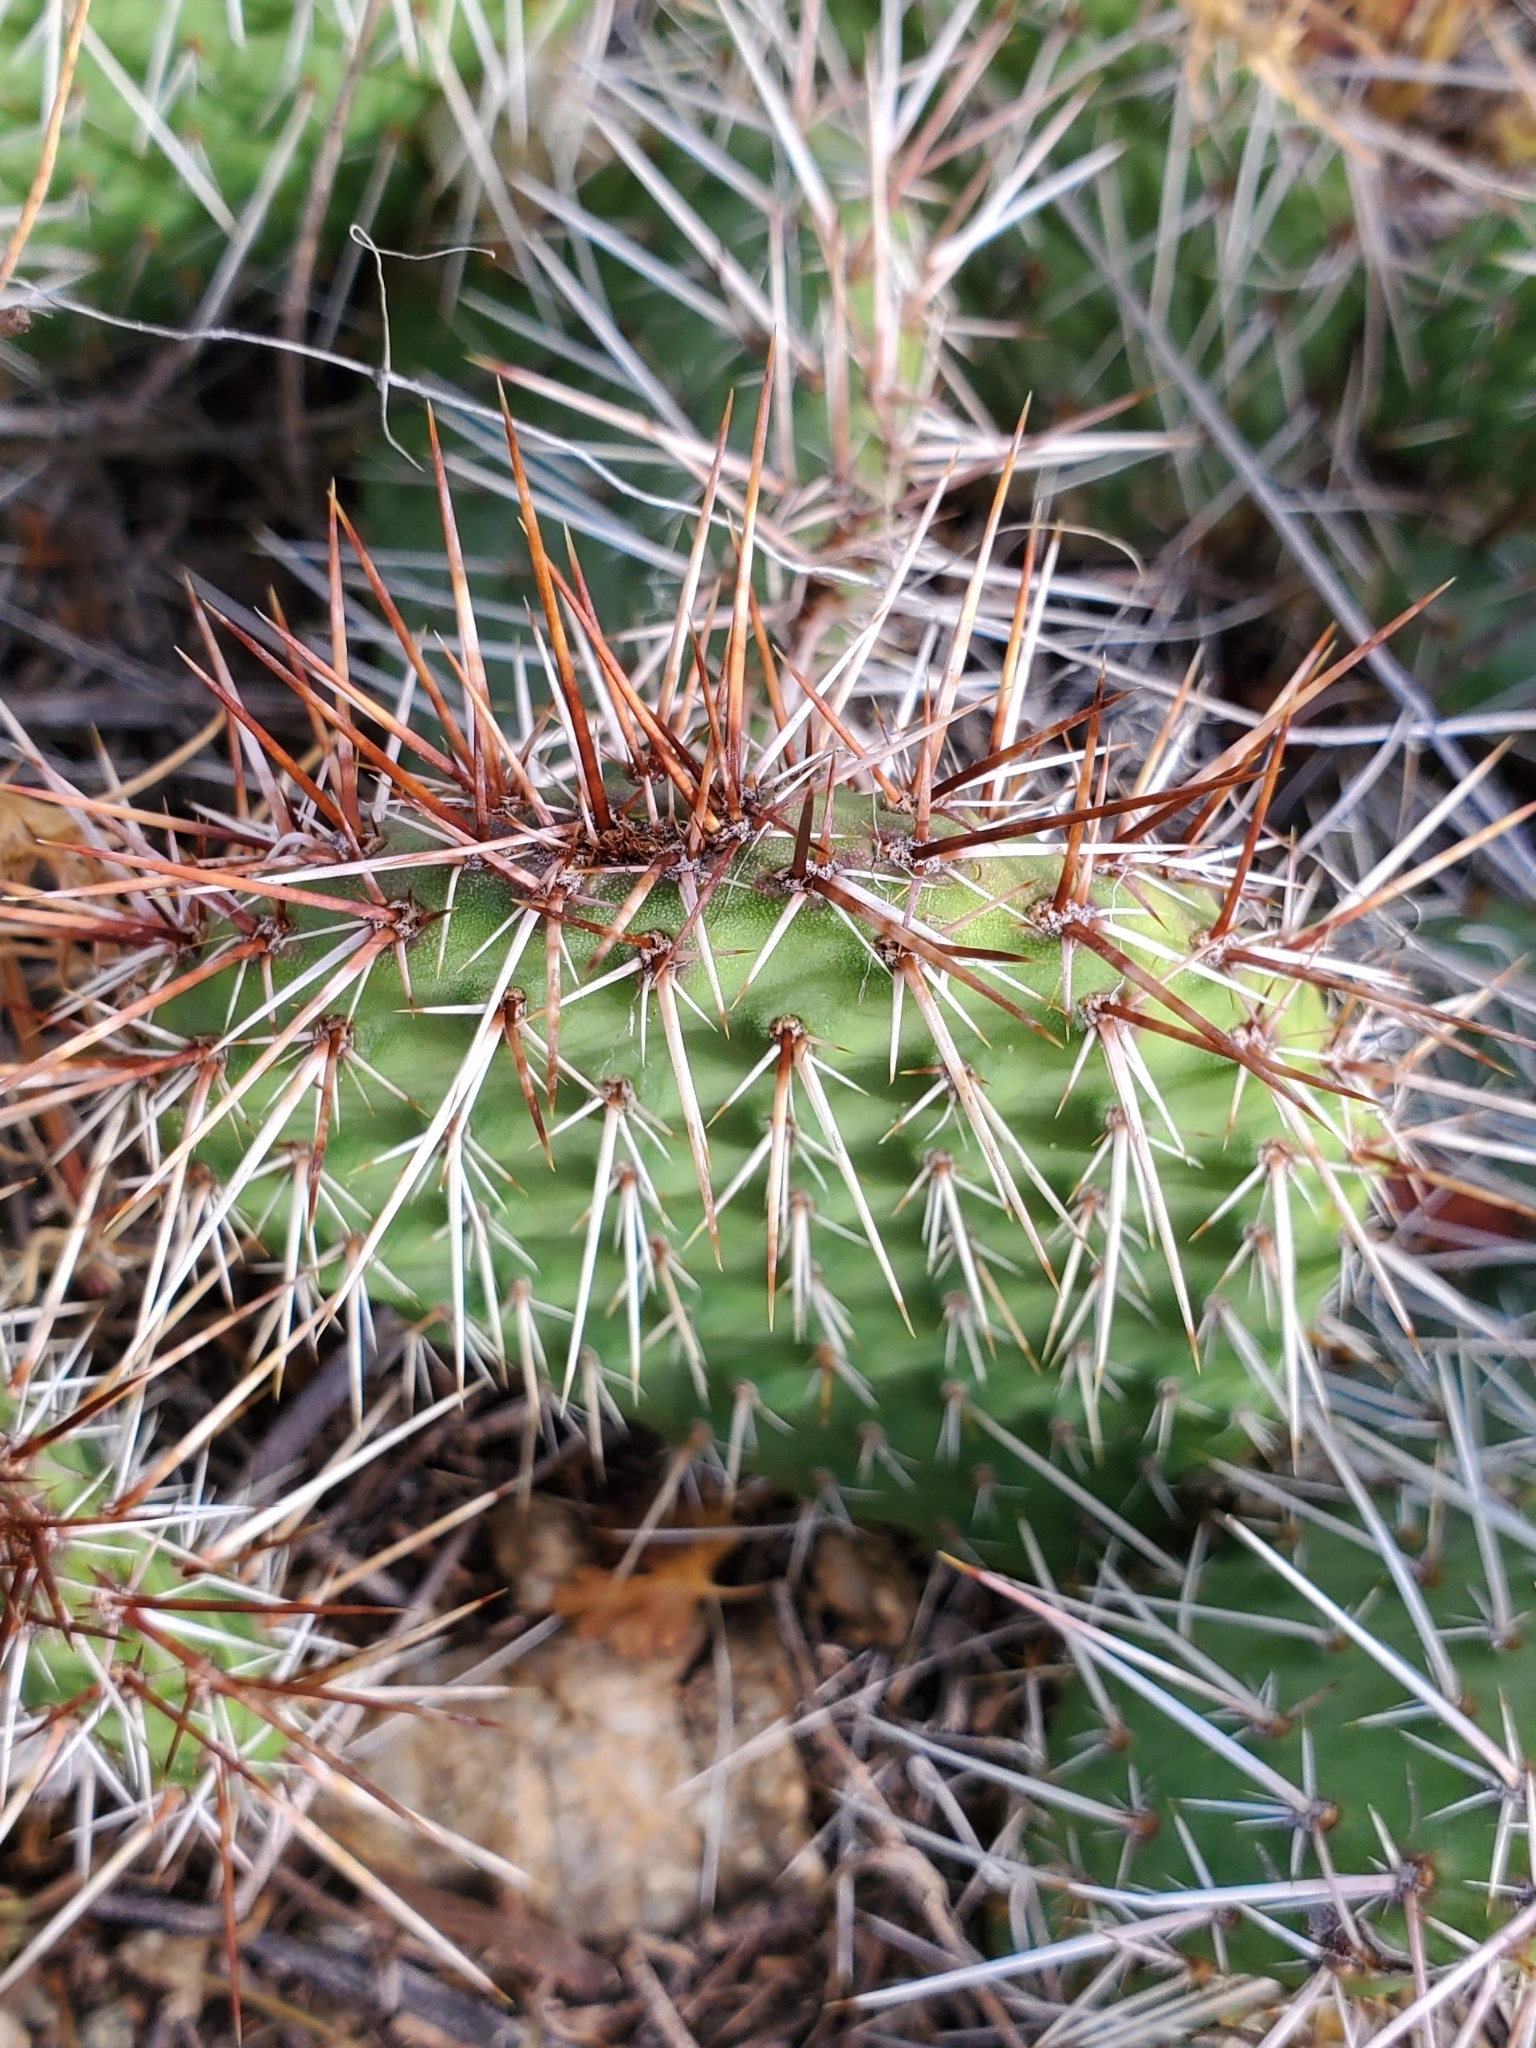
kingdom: Plantae
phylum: Tracheophyta
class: Magnoliopsida
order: Caryophyllales
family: Cactaceae
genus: Opuntia
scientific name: Opuntia polyacantha
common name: Plains prickly-pear
